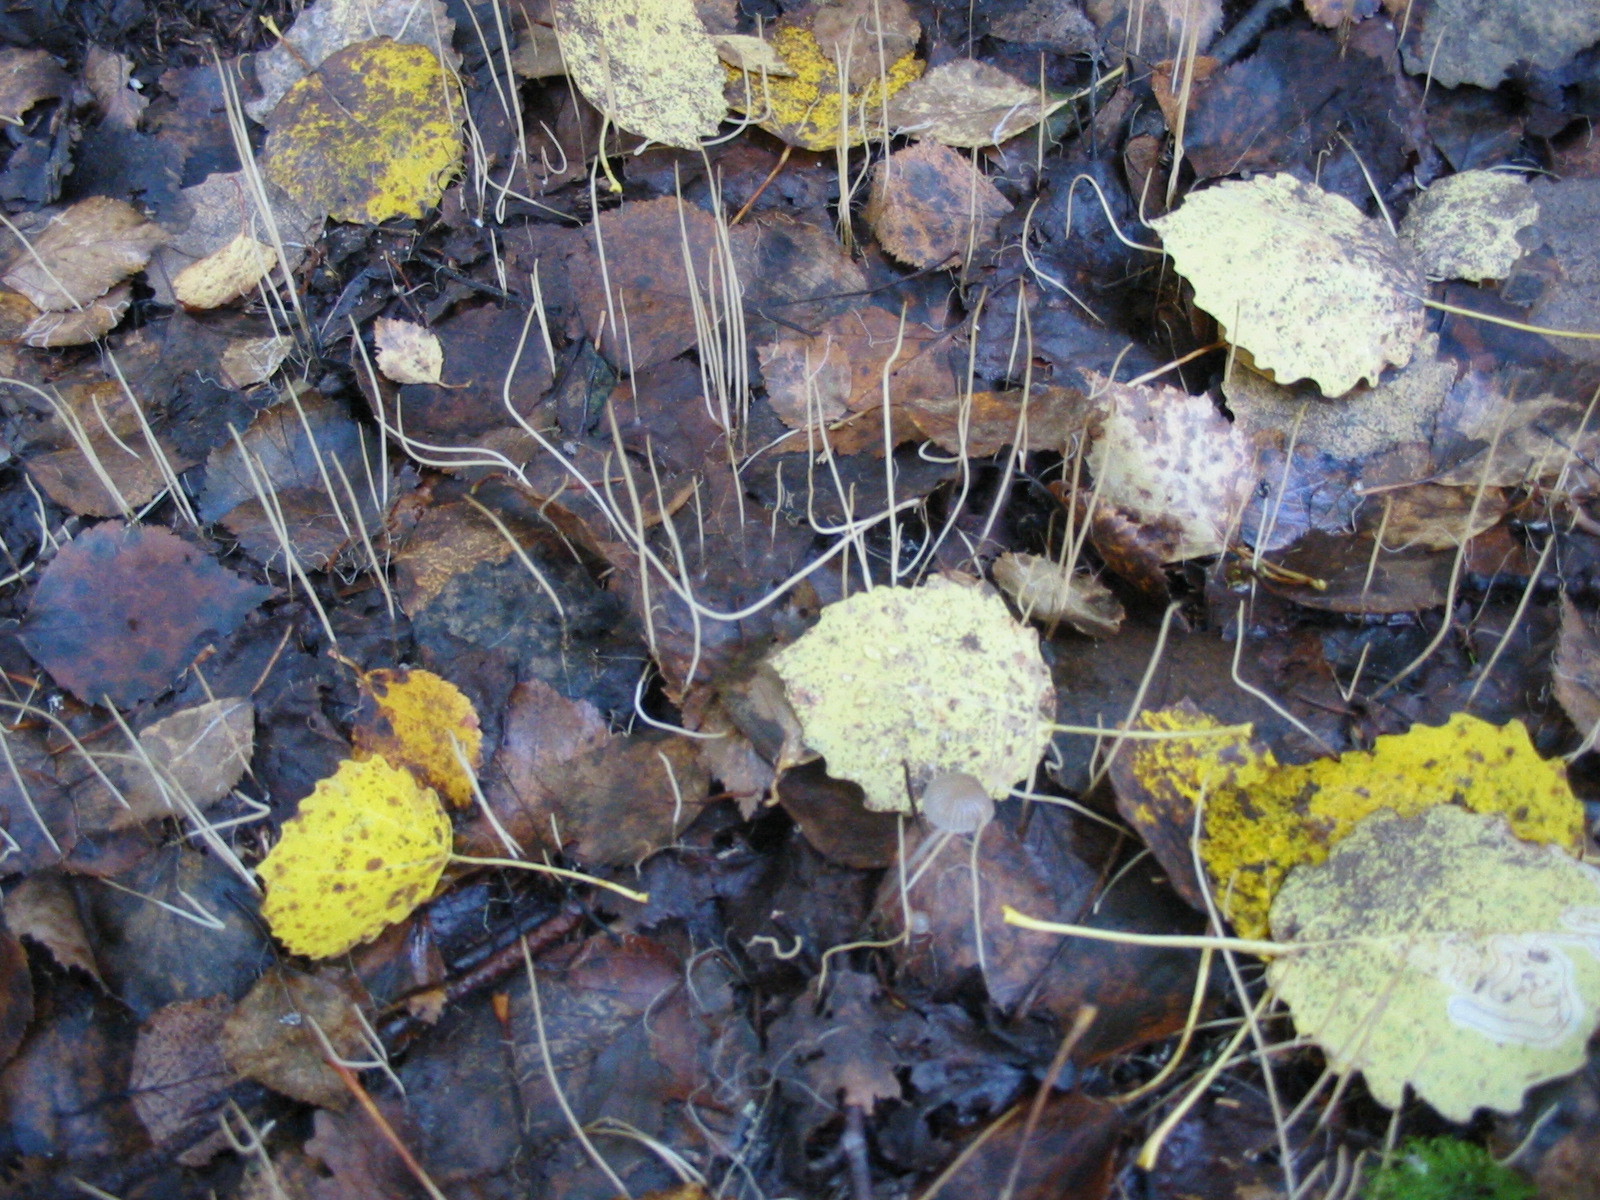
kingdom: Fungi
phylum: Basidiomycota
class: Agaricomycetes
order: Agaricales
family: Typhulaceae
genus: Typhula
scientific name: Typhula juncea
